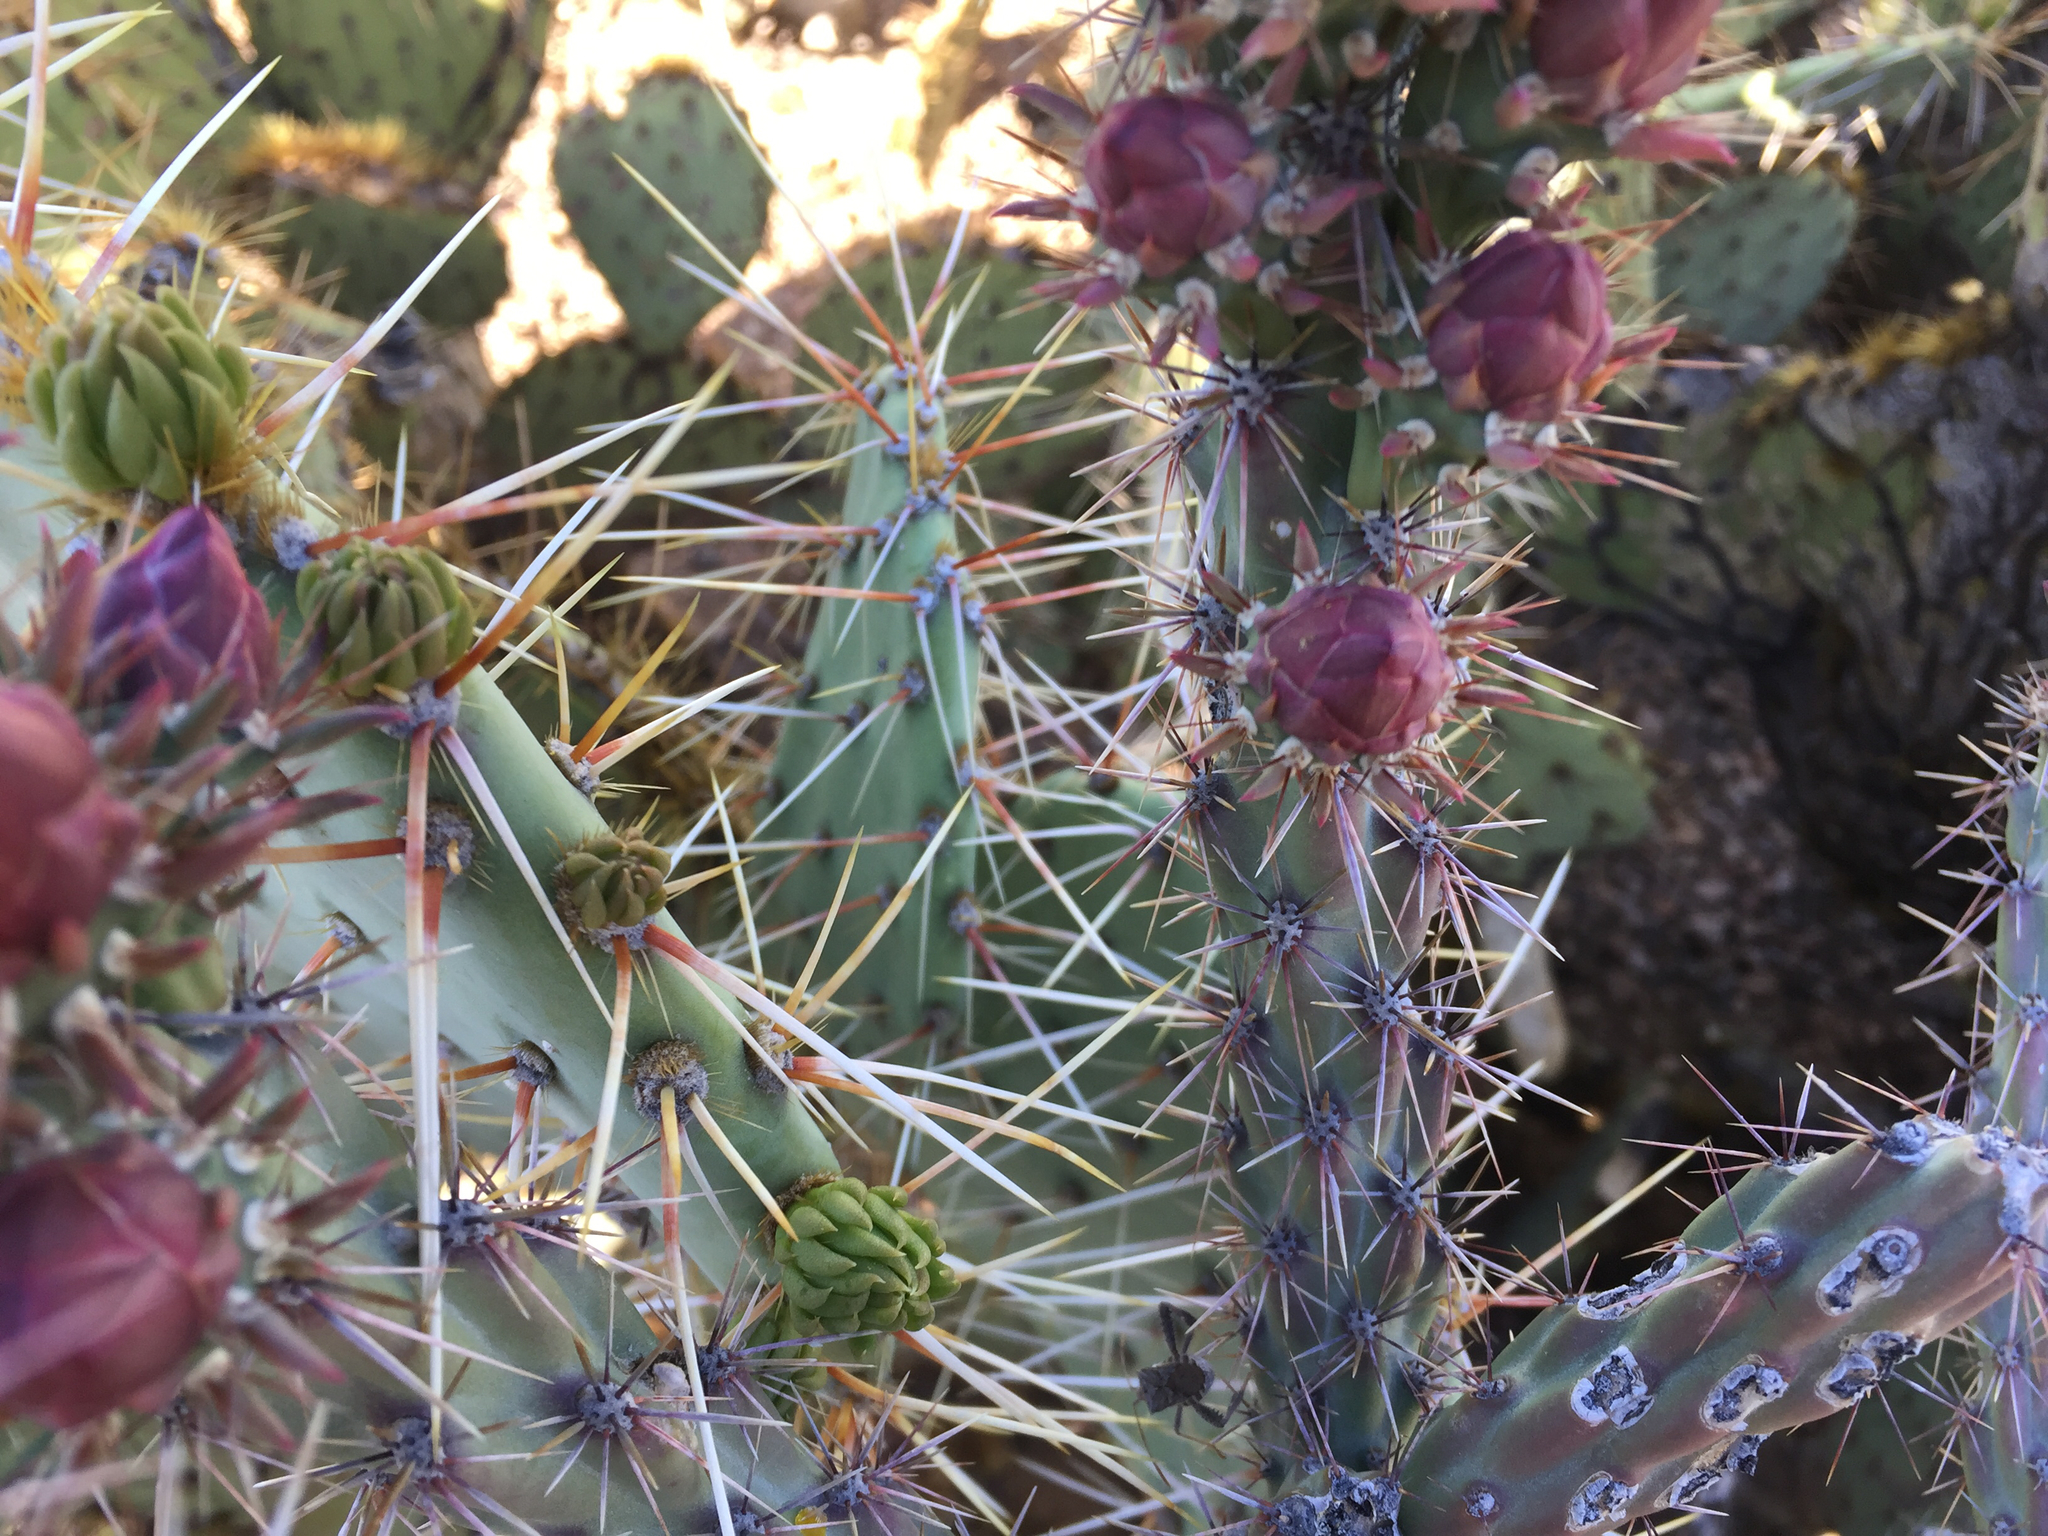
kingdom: Plantae
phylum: Tracheophyta
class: Magnoliopsida
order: Caryophyllales
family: Cactaceae
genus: Cylindropuntia
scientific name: Cylindropuntia acanthocarpa
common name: Buckhorn cholla
